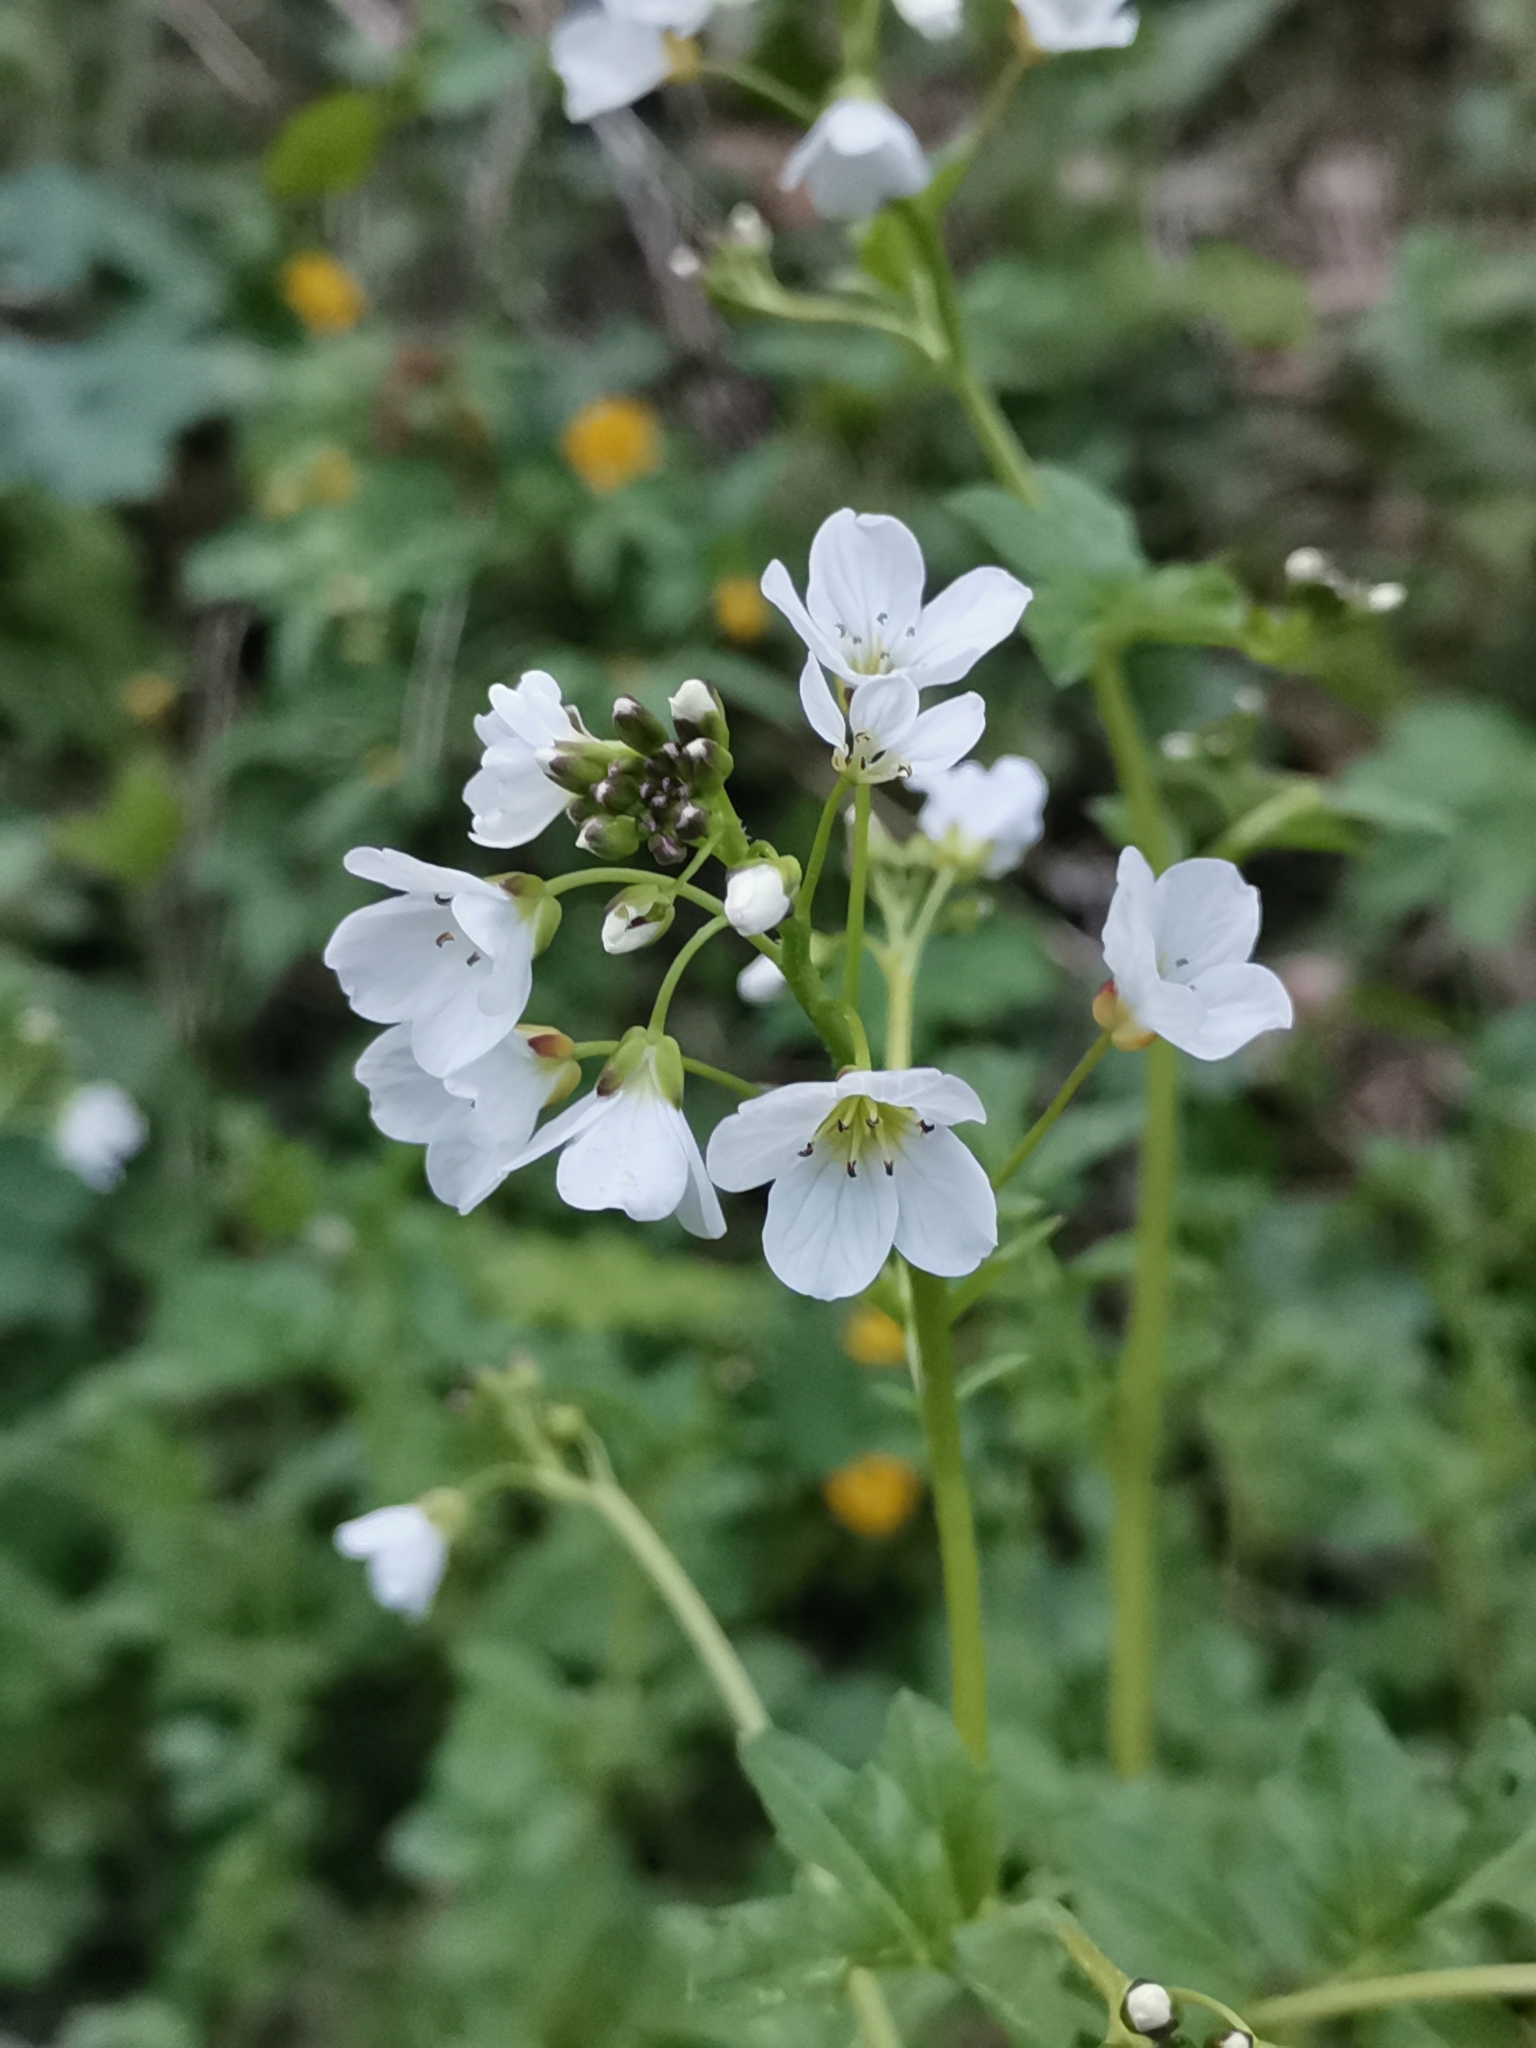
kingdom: Plantae
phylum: Tracheophyta
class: Magnoliopsida
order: Brassicales
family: Brassicaceae
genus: Cardamine
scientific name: Cardamine amara
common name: Large bitter-cress
